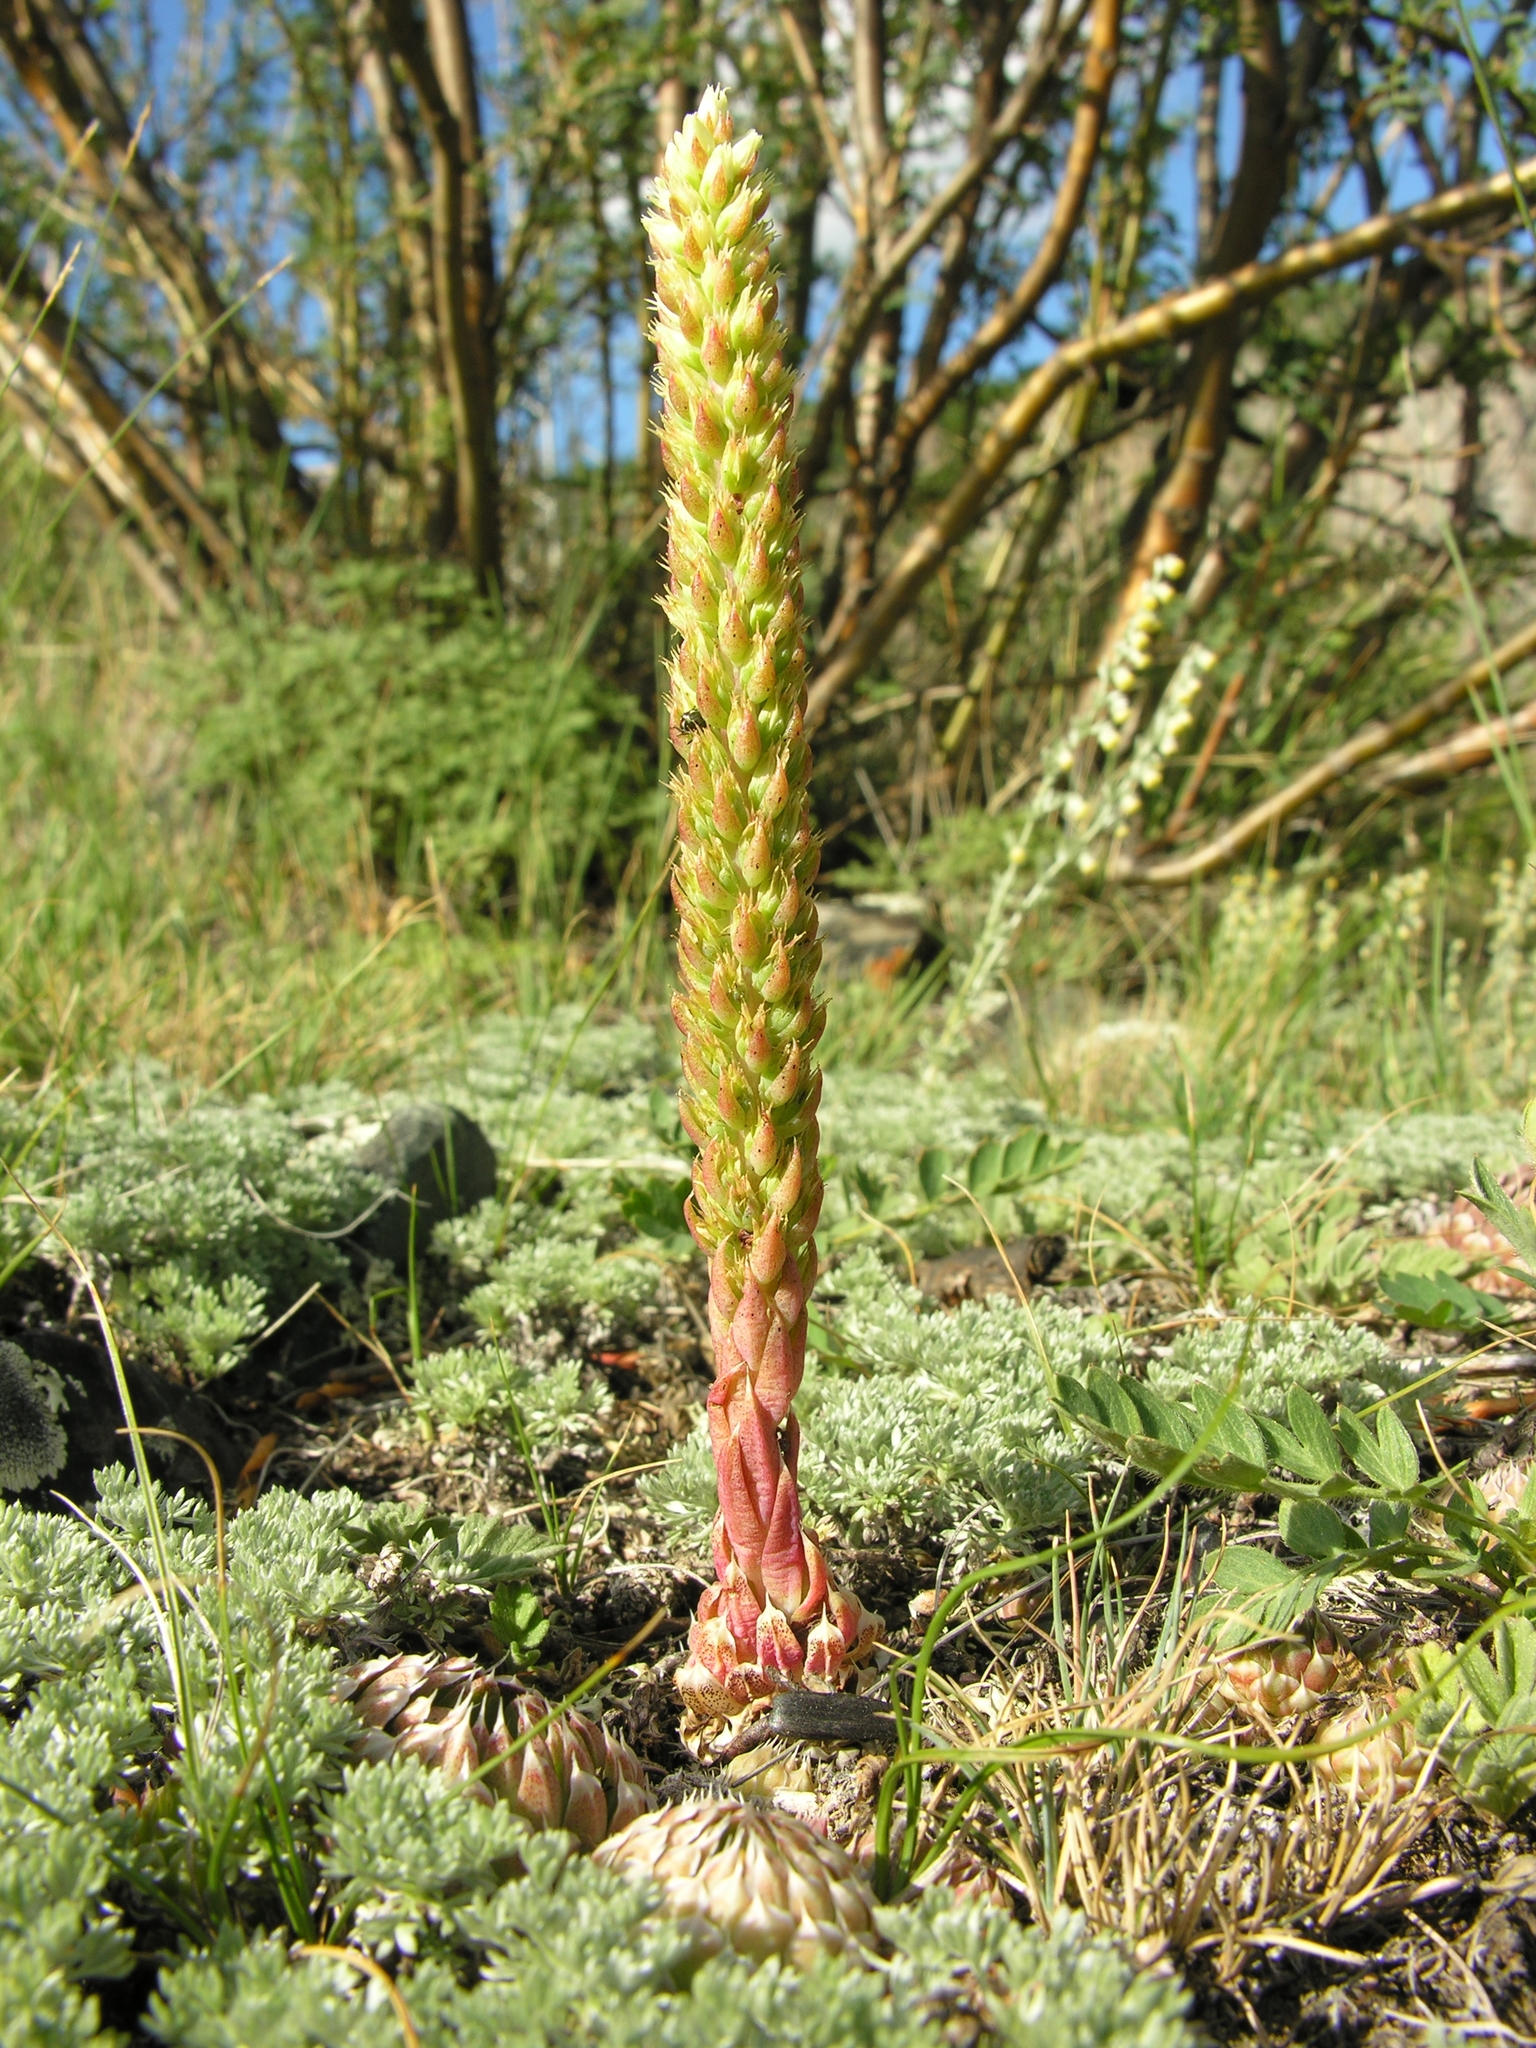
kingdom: Plantae
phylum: Tracheophyta
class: Magnoliopsida
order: Saxifragales
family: Crassulaceae
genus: Orostachys
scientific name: Orostachys spinosa
